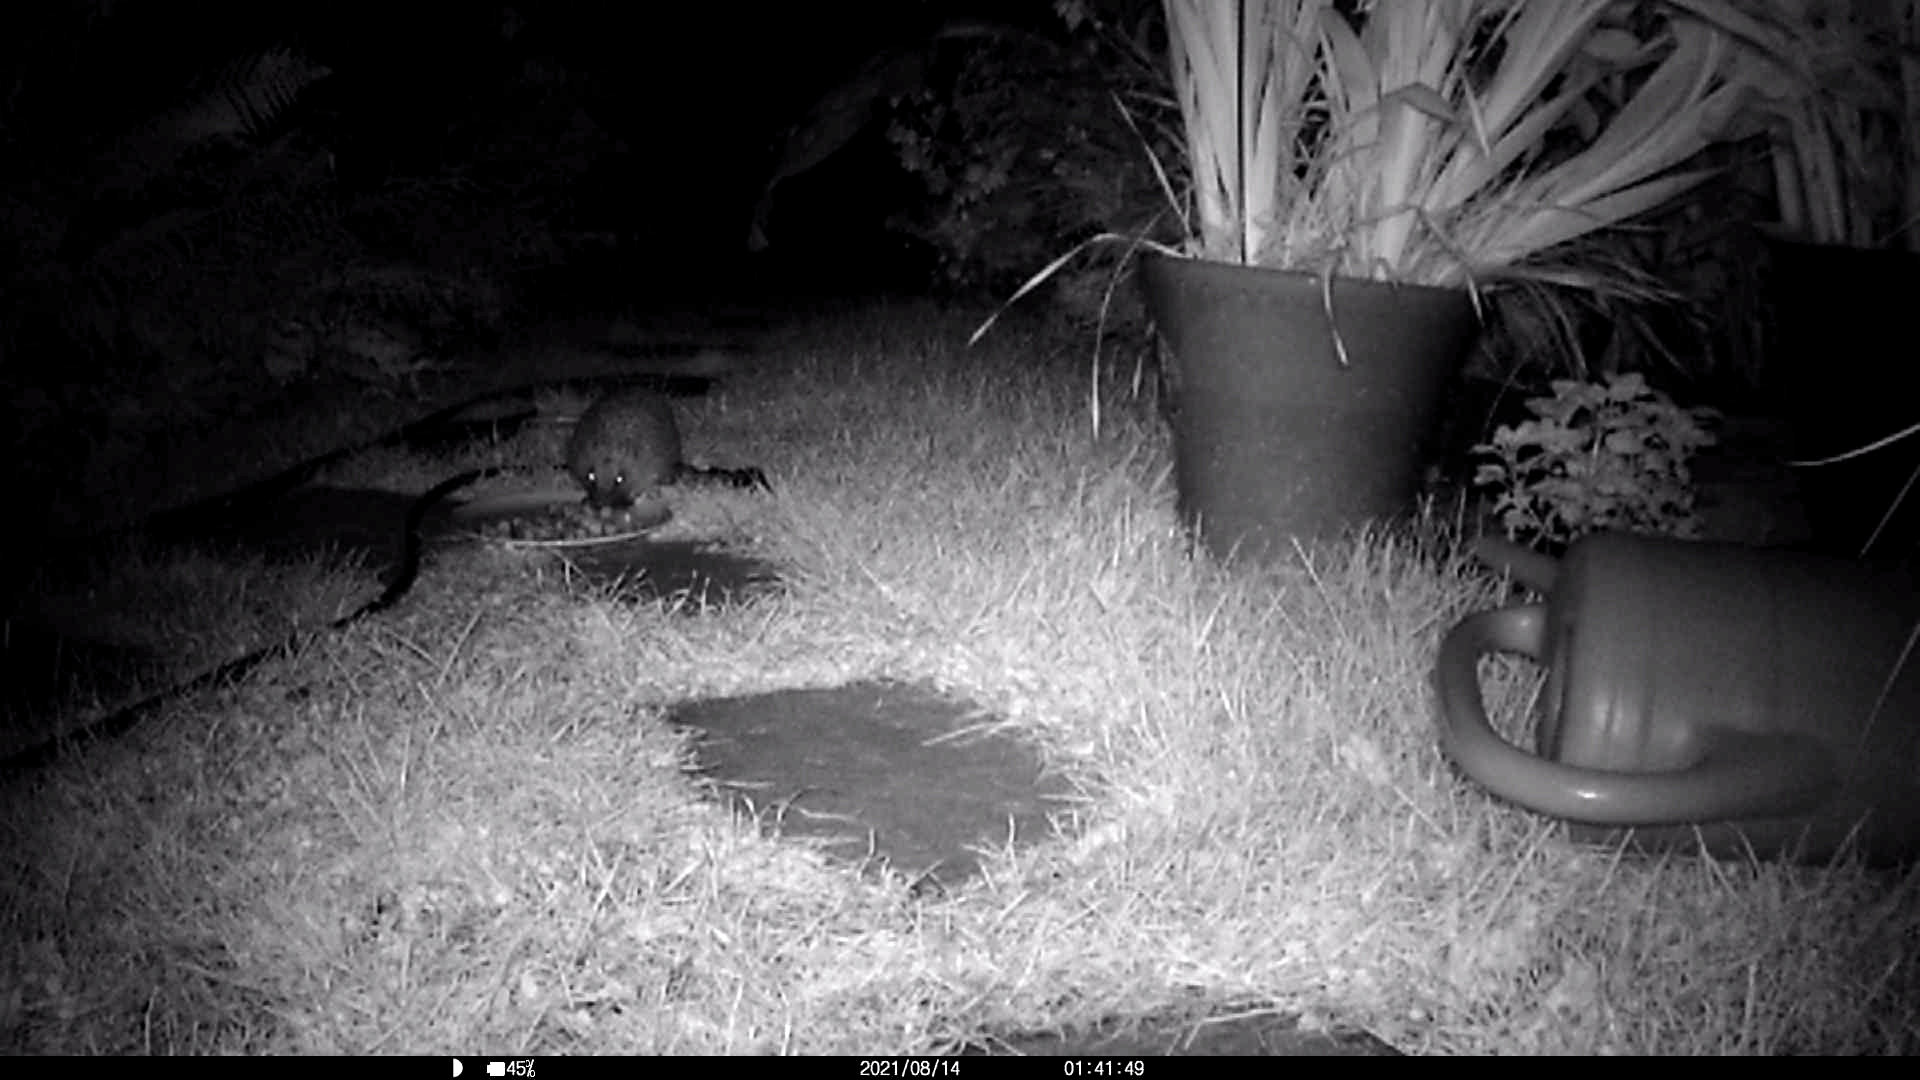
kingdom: Animalia
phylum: Chordata
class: Mammalia
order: Erinaceomorpha
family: Erinaceidae
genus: Erinaceus
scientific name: Erinaceus europaeus
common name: West european hedgehog
